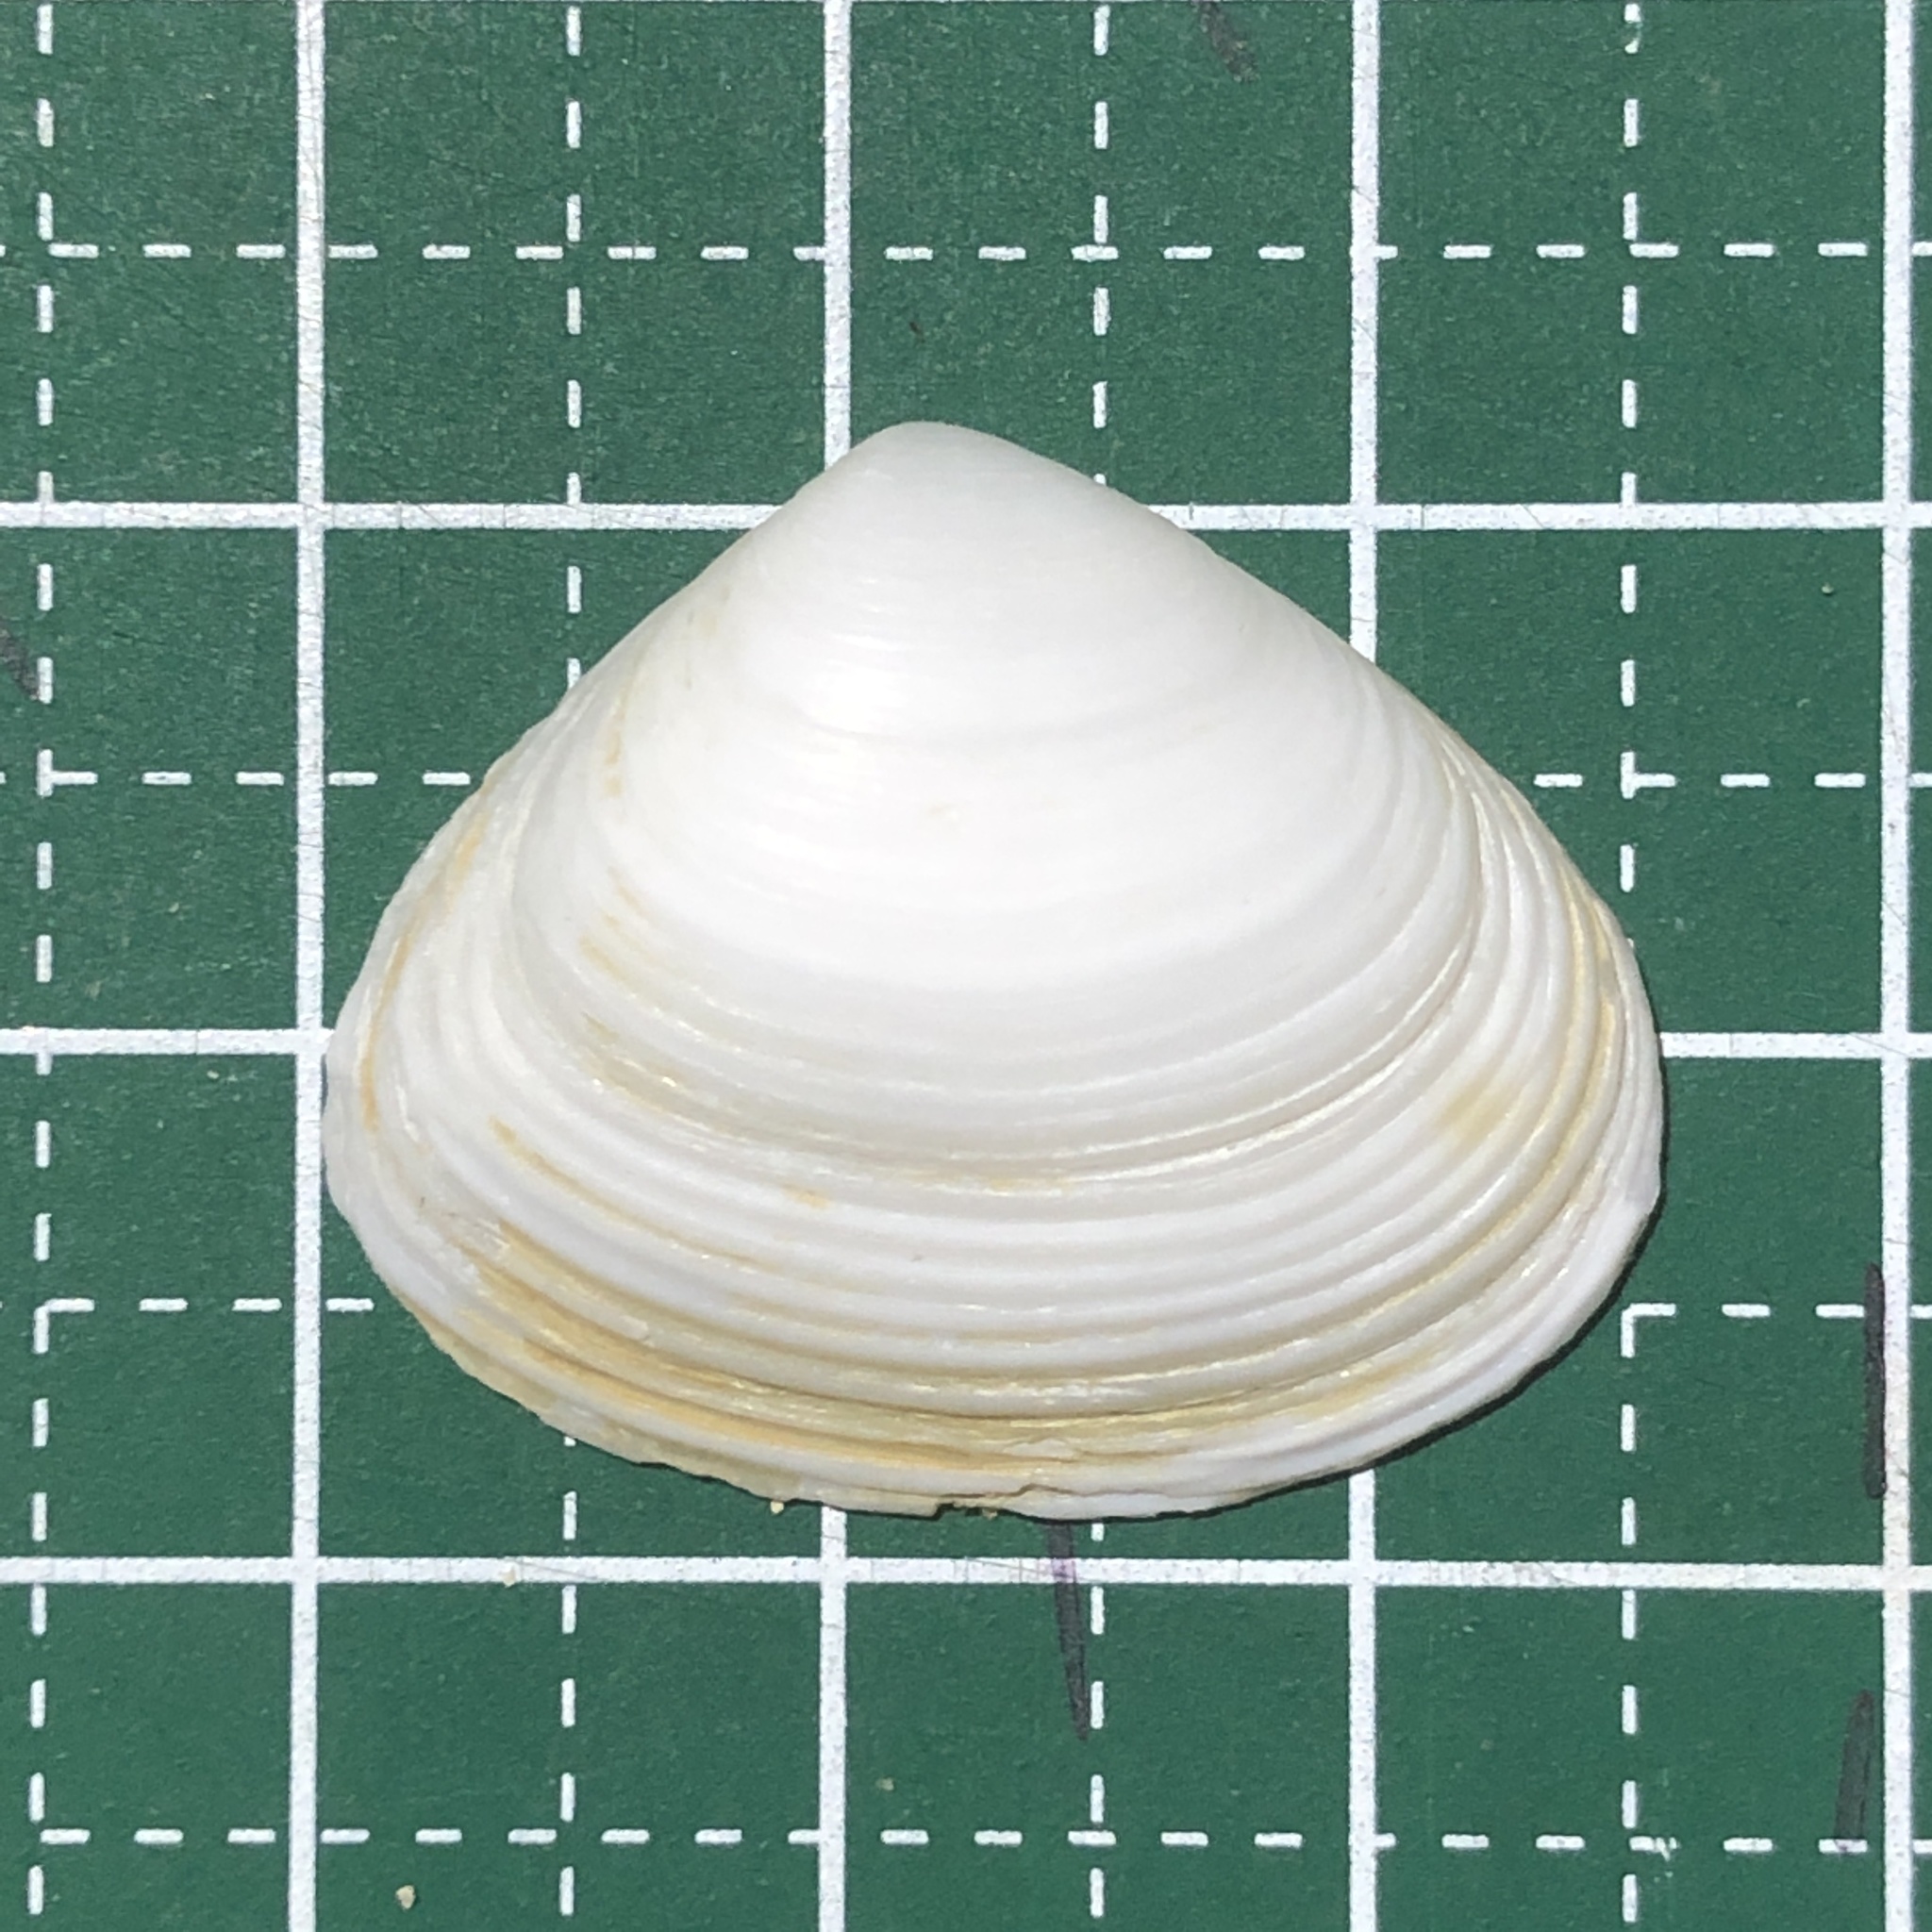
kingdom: Animalia
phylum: Mollusca
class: Bivalvia
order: Venerida
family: Mesodesmatidae
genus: Atactodea
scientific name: Atactodea striata
